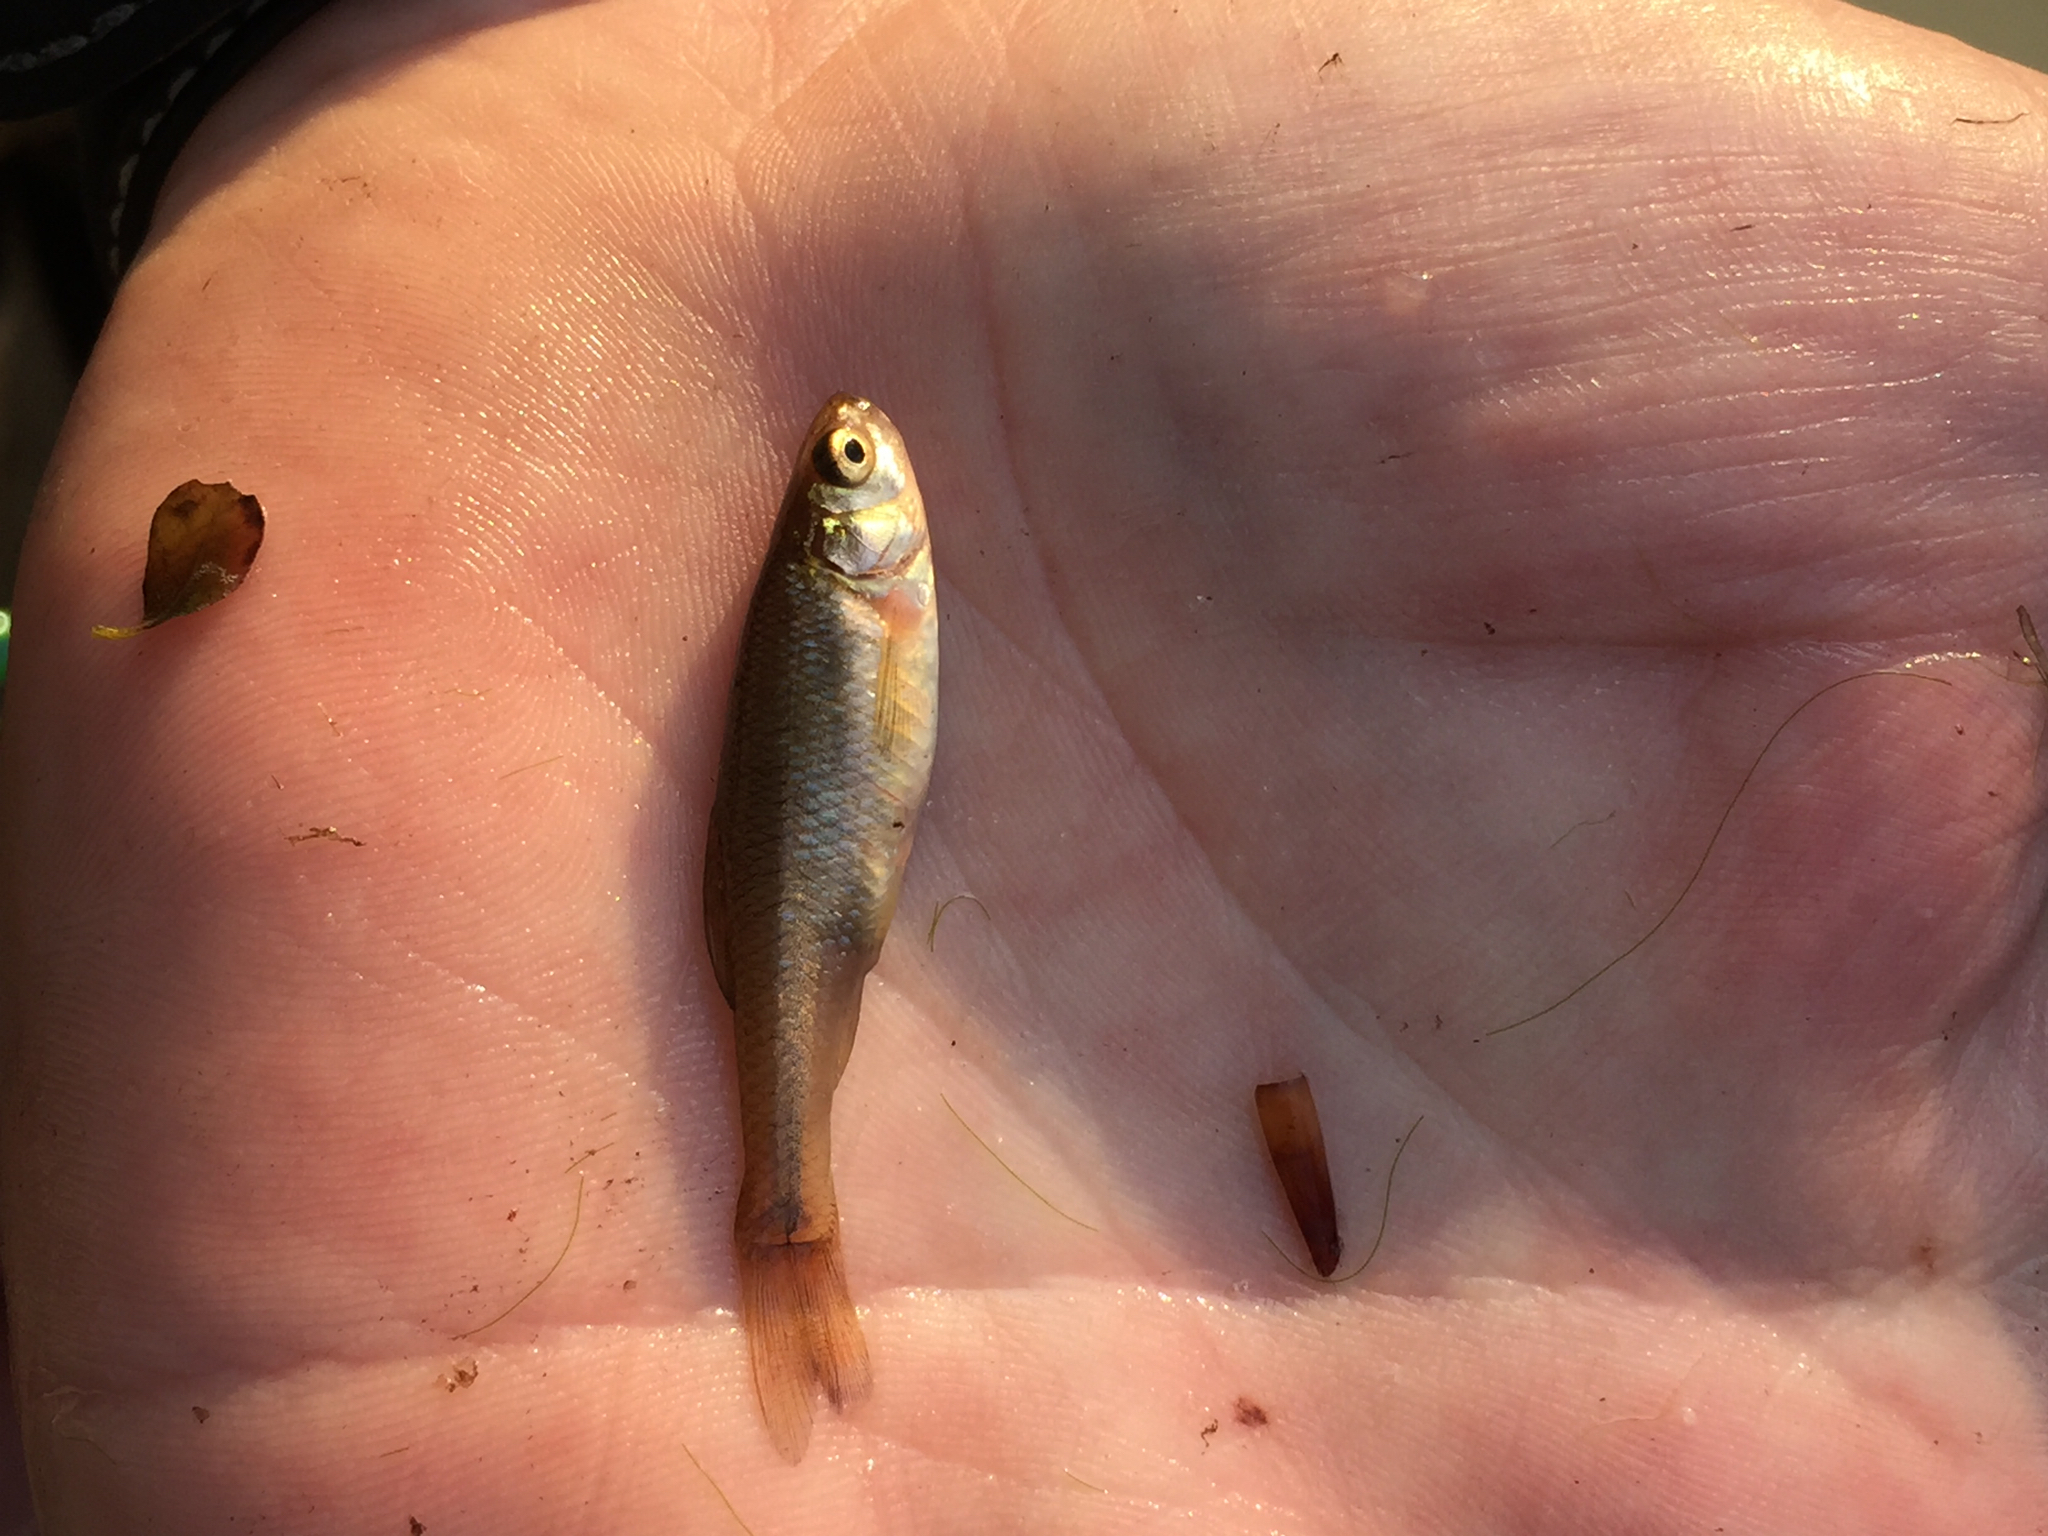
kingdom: Animalia
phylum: Chordata
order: Cypriniformes
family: Cyprinidae
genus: Pimephales
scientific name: Pimephales promelas
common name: Fathead minnow
